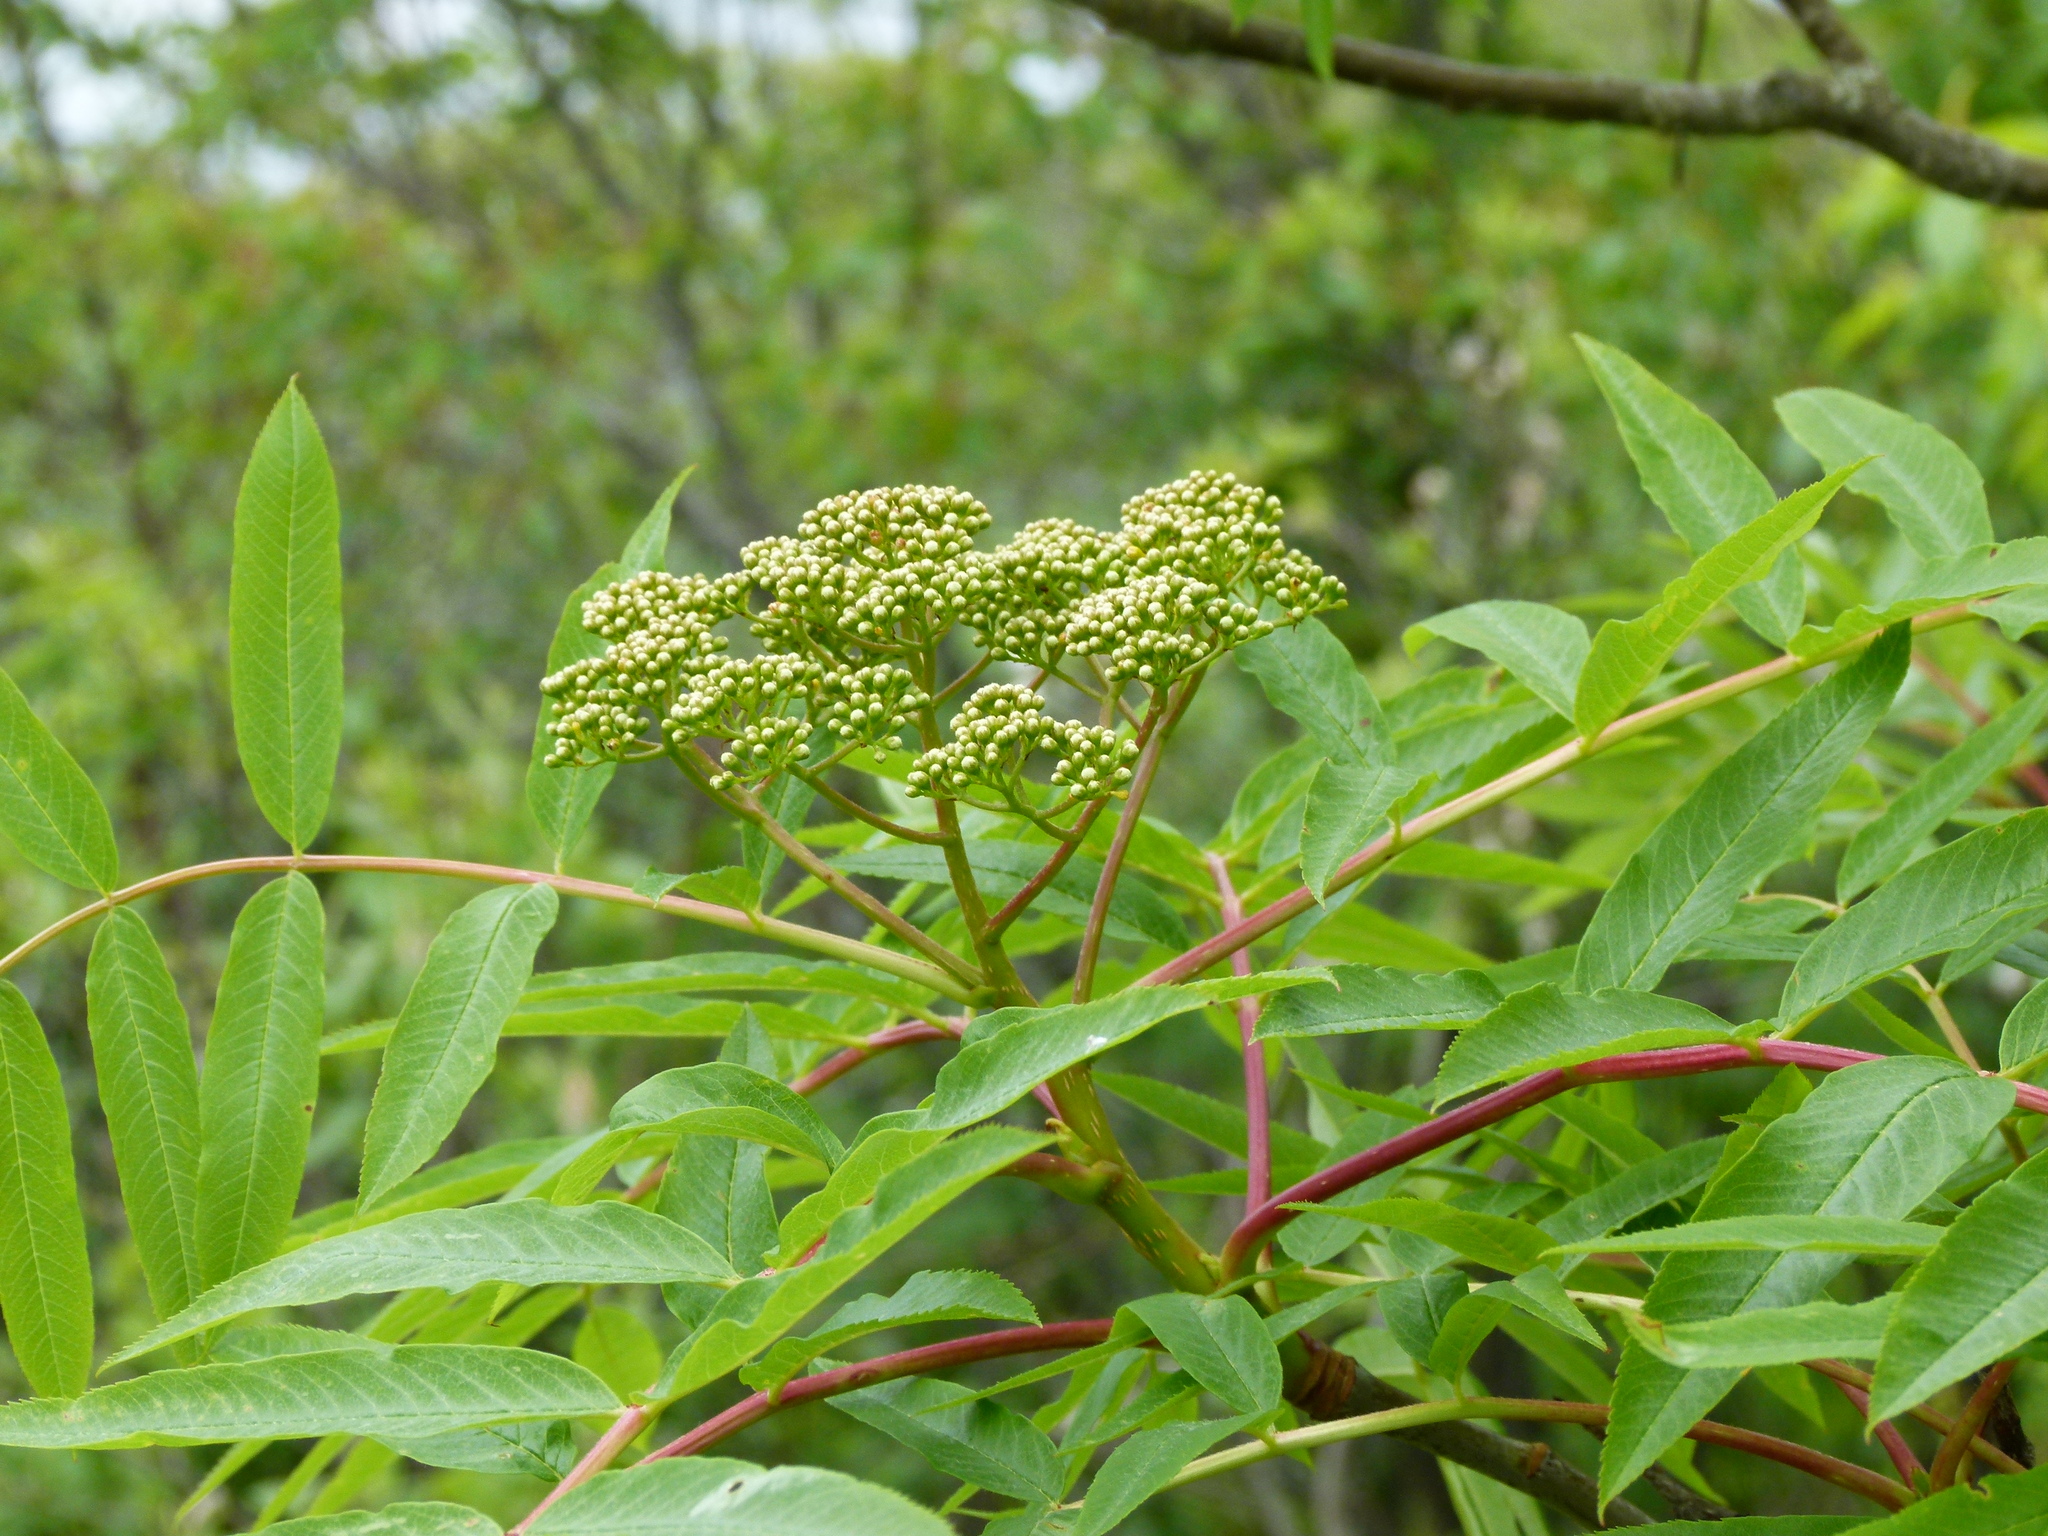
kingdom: Plantae
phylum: Tracheophyta
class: Magnoliopsida
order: Rosales
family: Rosaceae
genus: Sorbus
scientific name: Sorbus americana
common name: American mountain-ash
